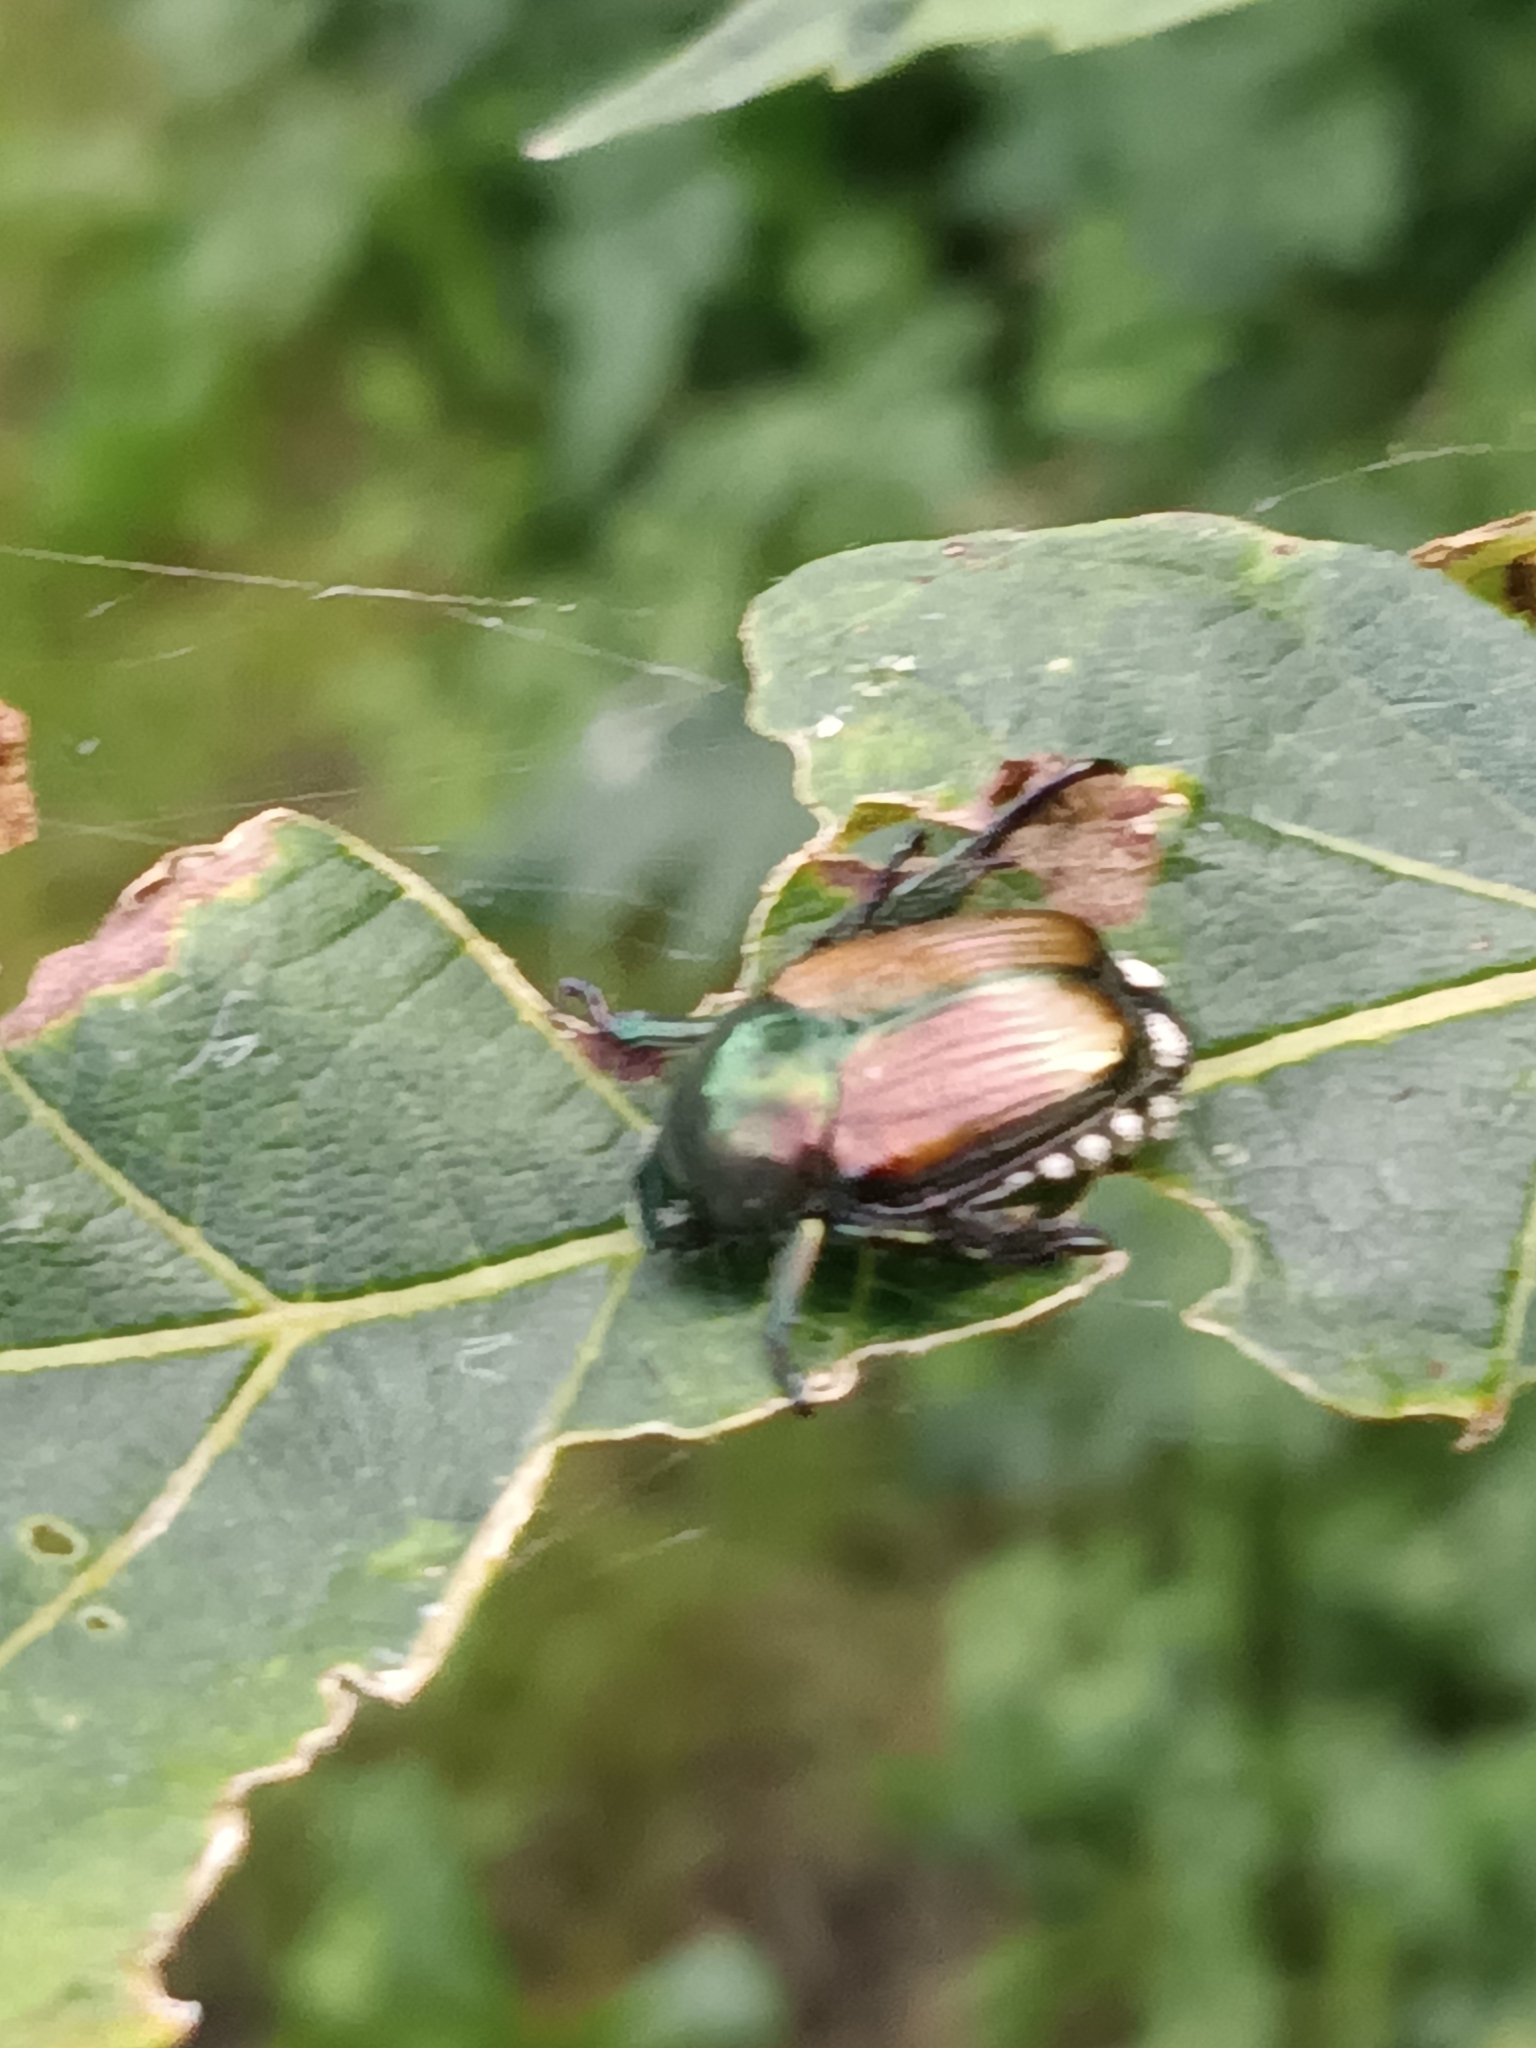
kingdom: Animalia
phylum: Arthropoda
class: Insecta
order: Coleoptera
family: Scarabaeidae
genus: Popillia
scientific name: Popillia japonica
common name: Japanese beetle
